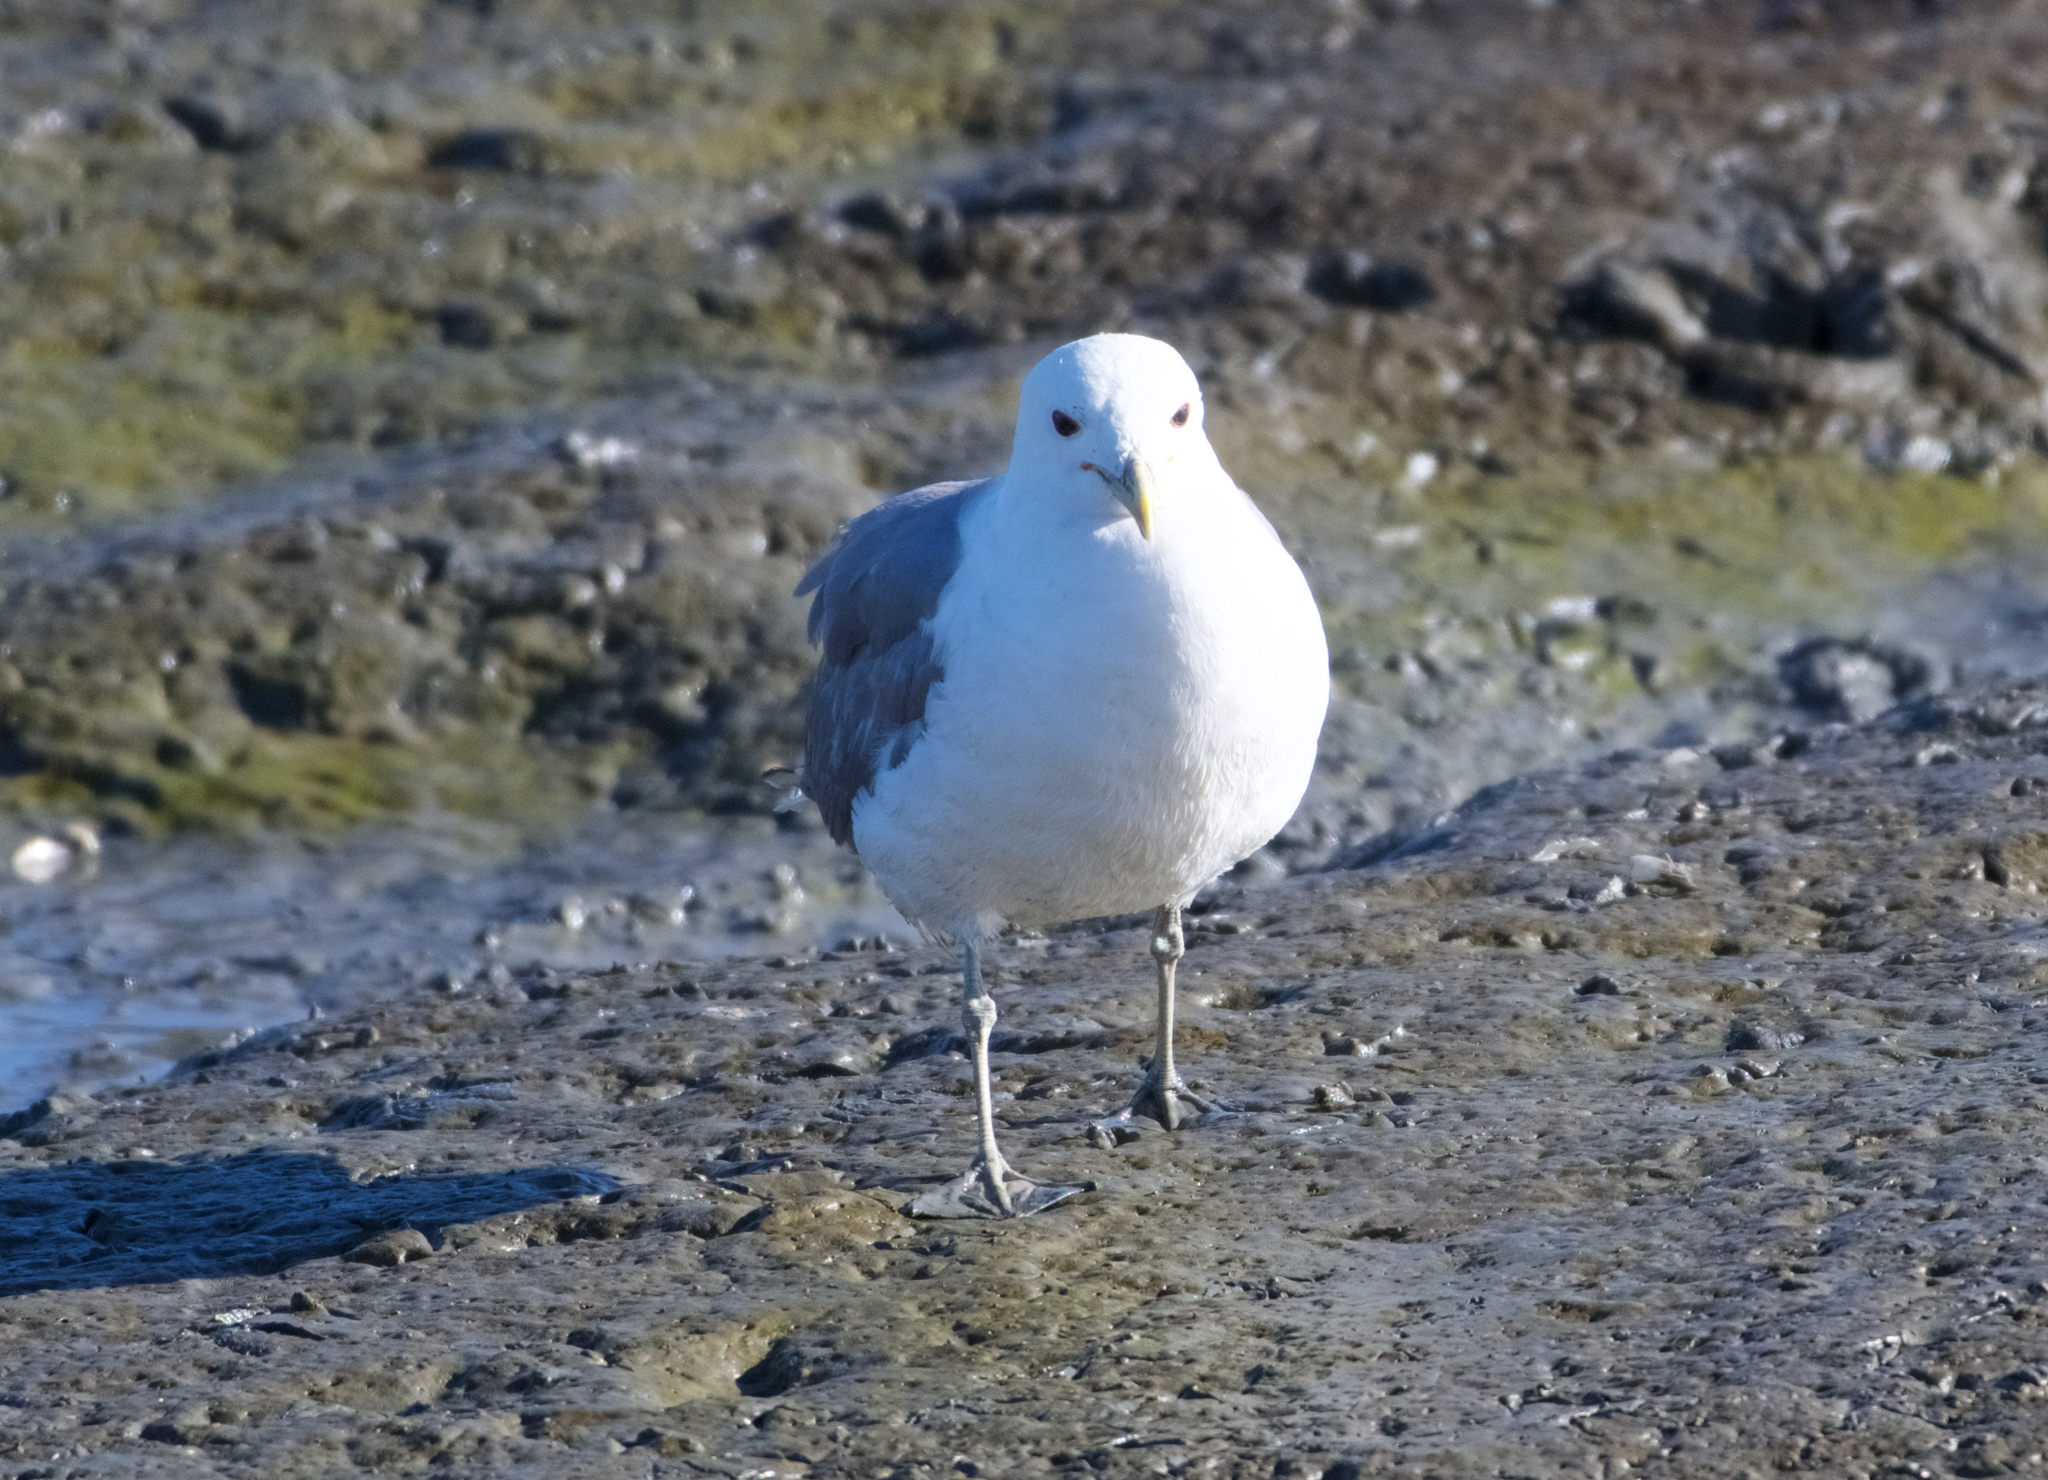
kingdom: Animalia
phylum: Chordata
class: Aves
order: Charadriiformes
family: Laridae
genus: Larus
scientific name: Larus californicus
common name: California gull
